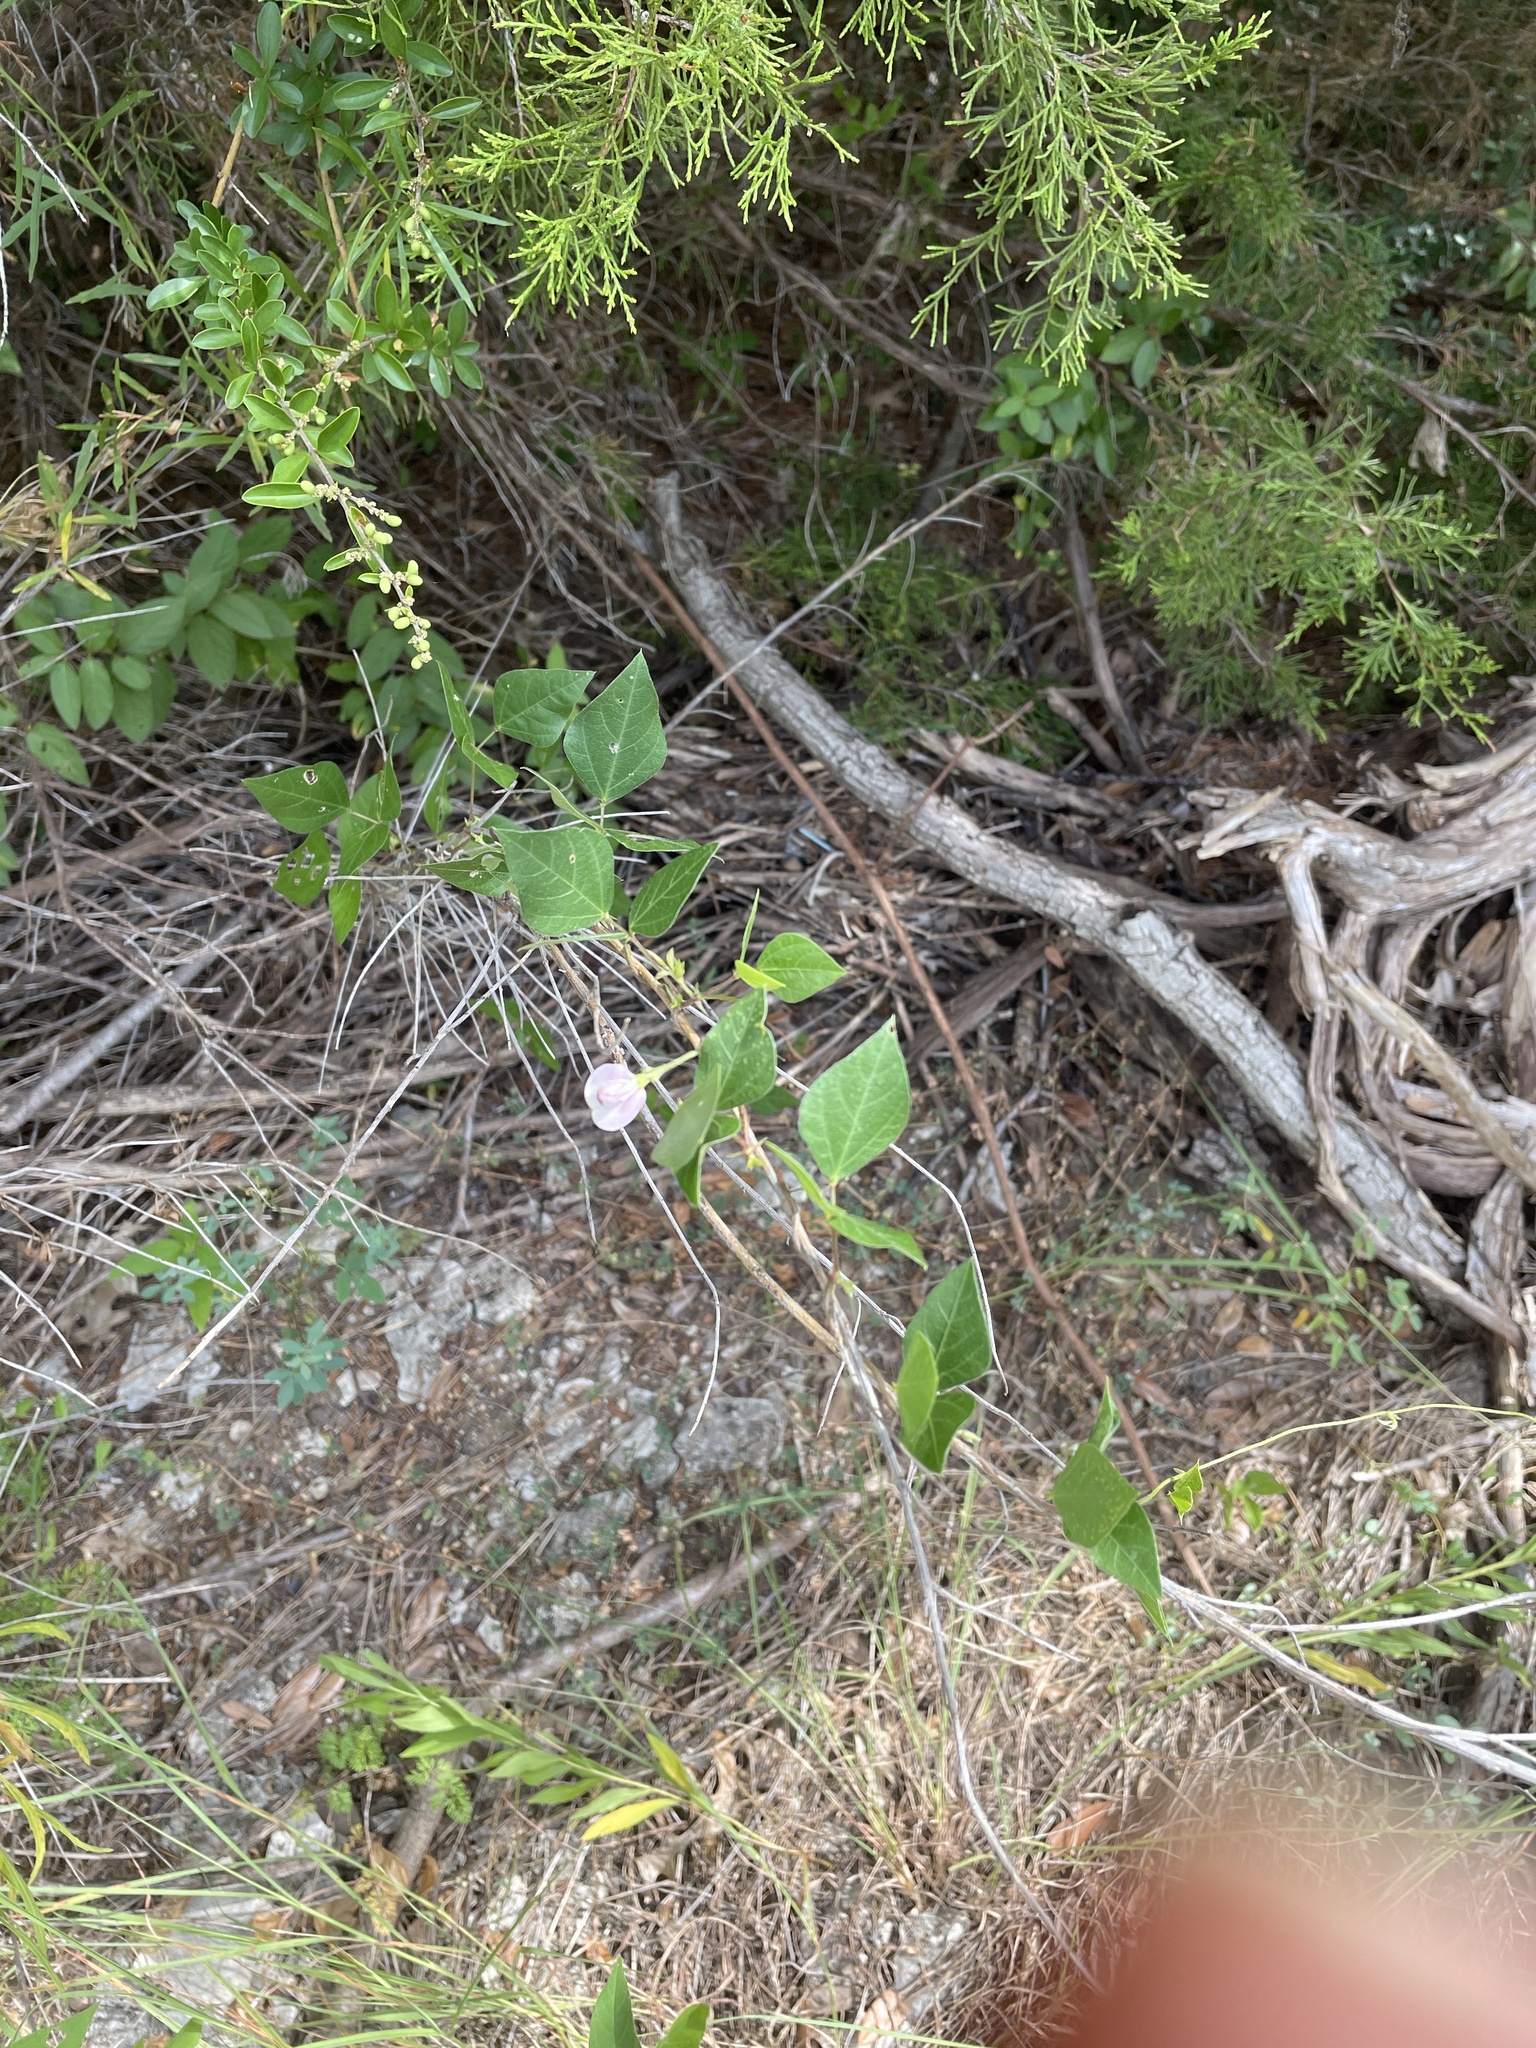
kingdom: Plantae
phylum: Tracheophyta
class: Magnoliopsida
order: Fabales
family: Fabaceae
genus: Strophostyles
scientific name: Strophostyles helvola
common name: Trailing wild bean
